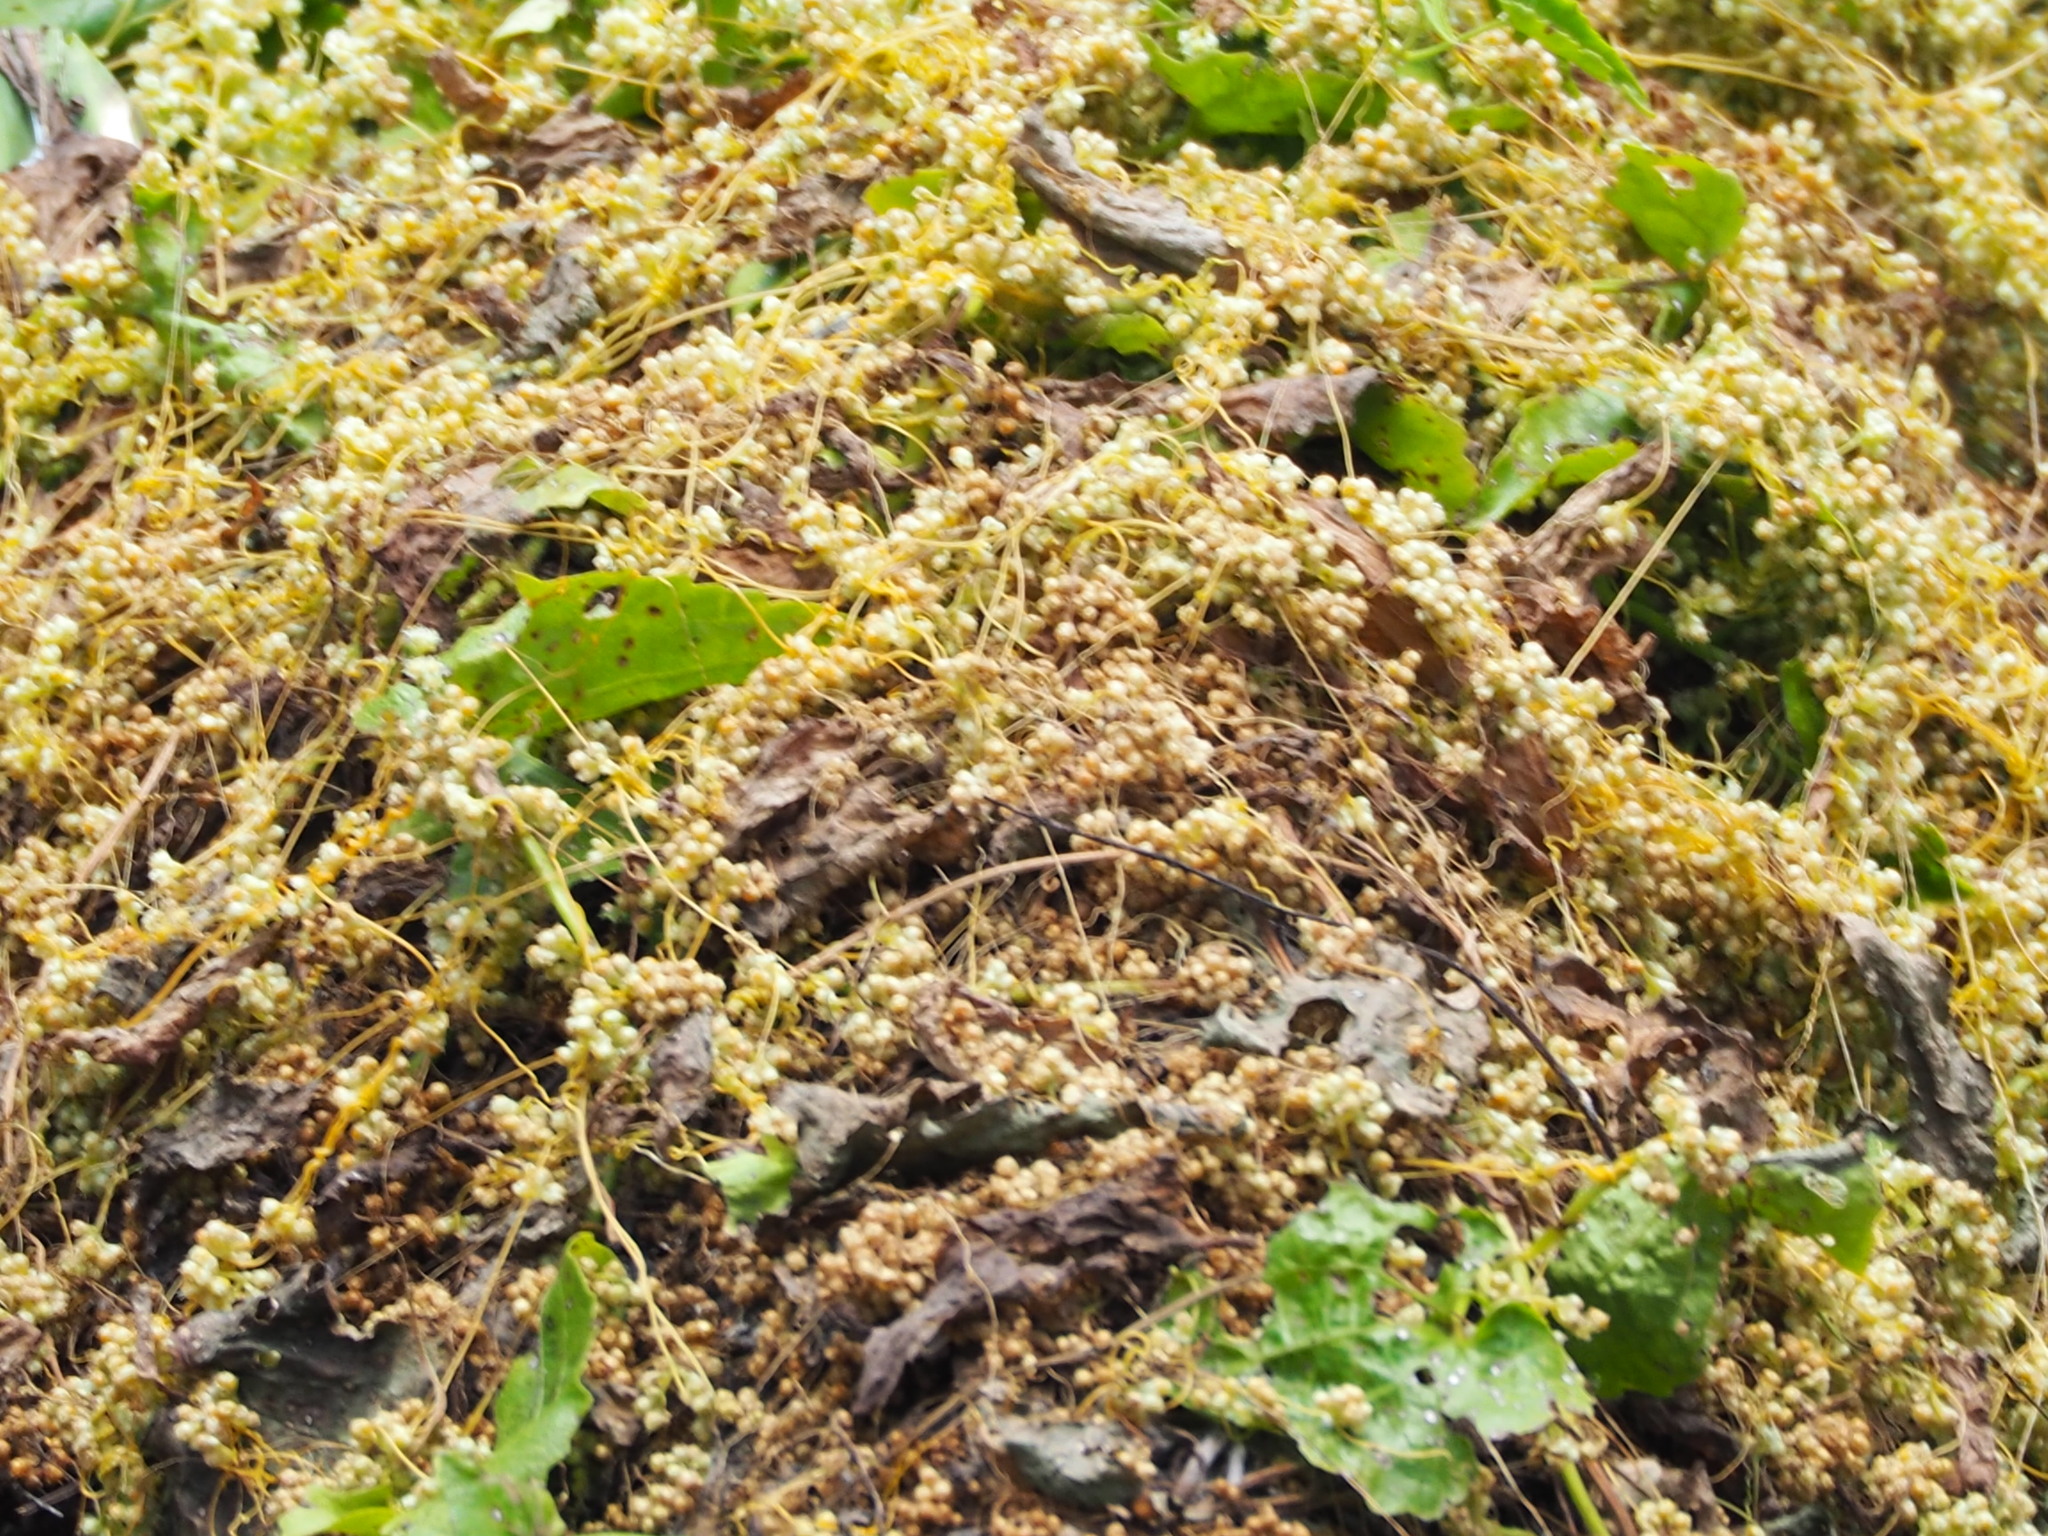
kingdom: Plantae
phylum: Tracheophyta
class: Magnoliopsida
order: Solanales
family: Convolvulaceae
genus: Cuscuta
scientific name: Cuscuta campestris
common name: Yellow dodder
